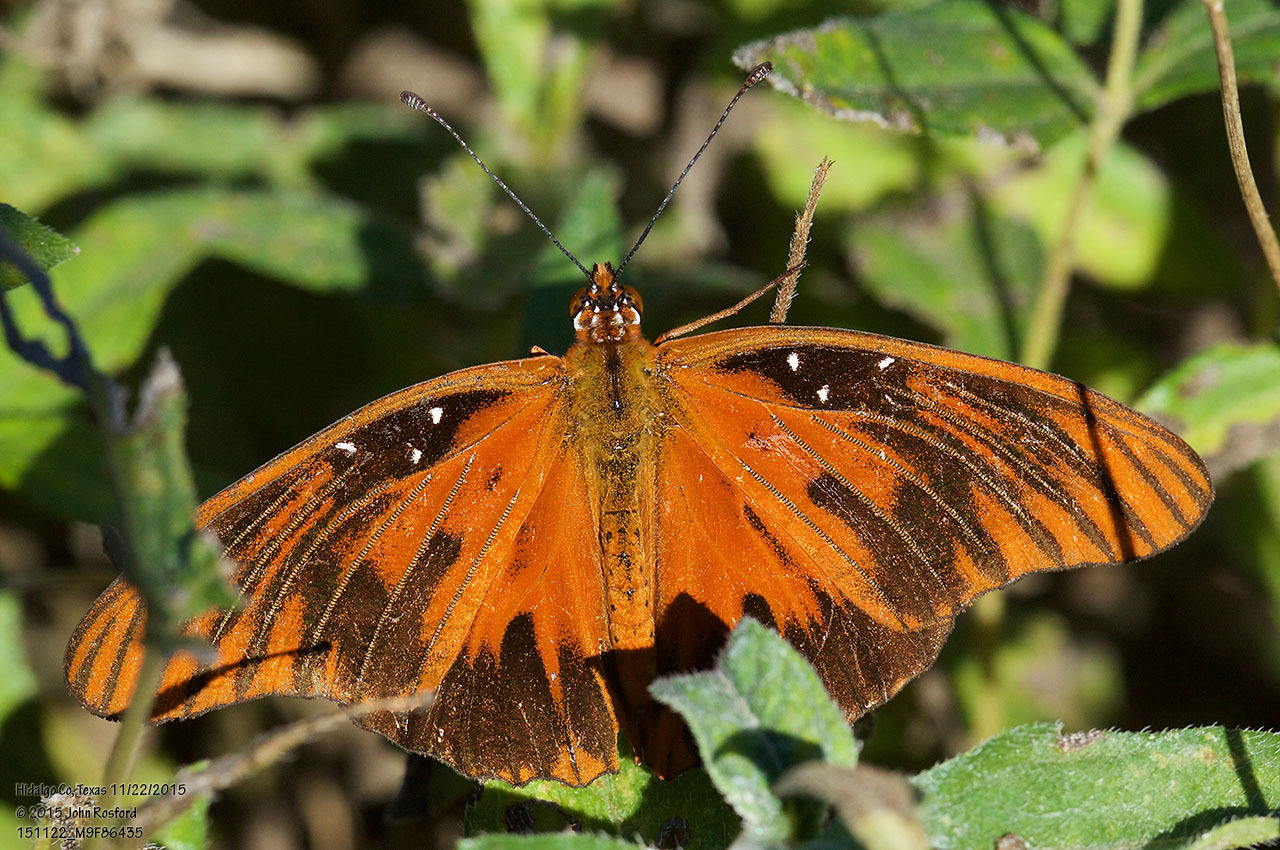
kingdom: Animalia
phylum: Arthropoda
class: Insecta
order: Lepidoptera
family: Nymphalidae
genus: Dione
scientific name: Dione vanillae
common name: Gulf fritillary
